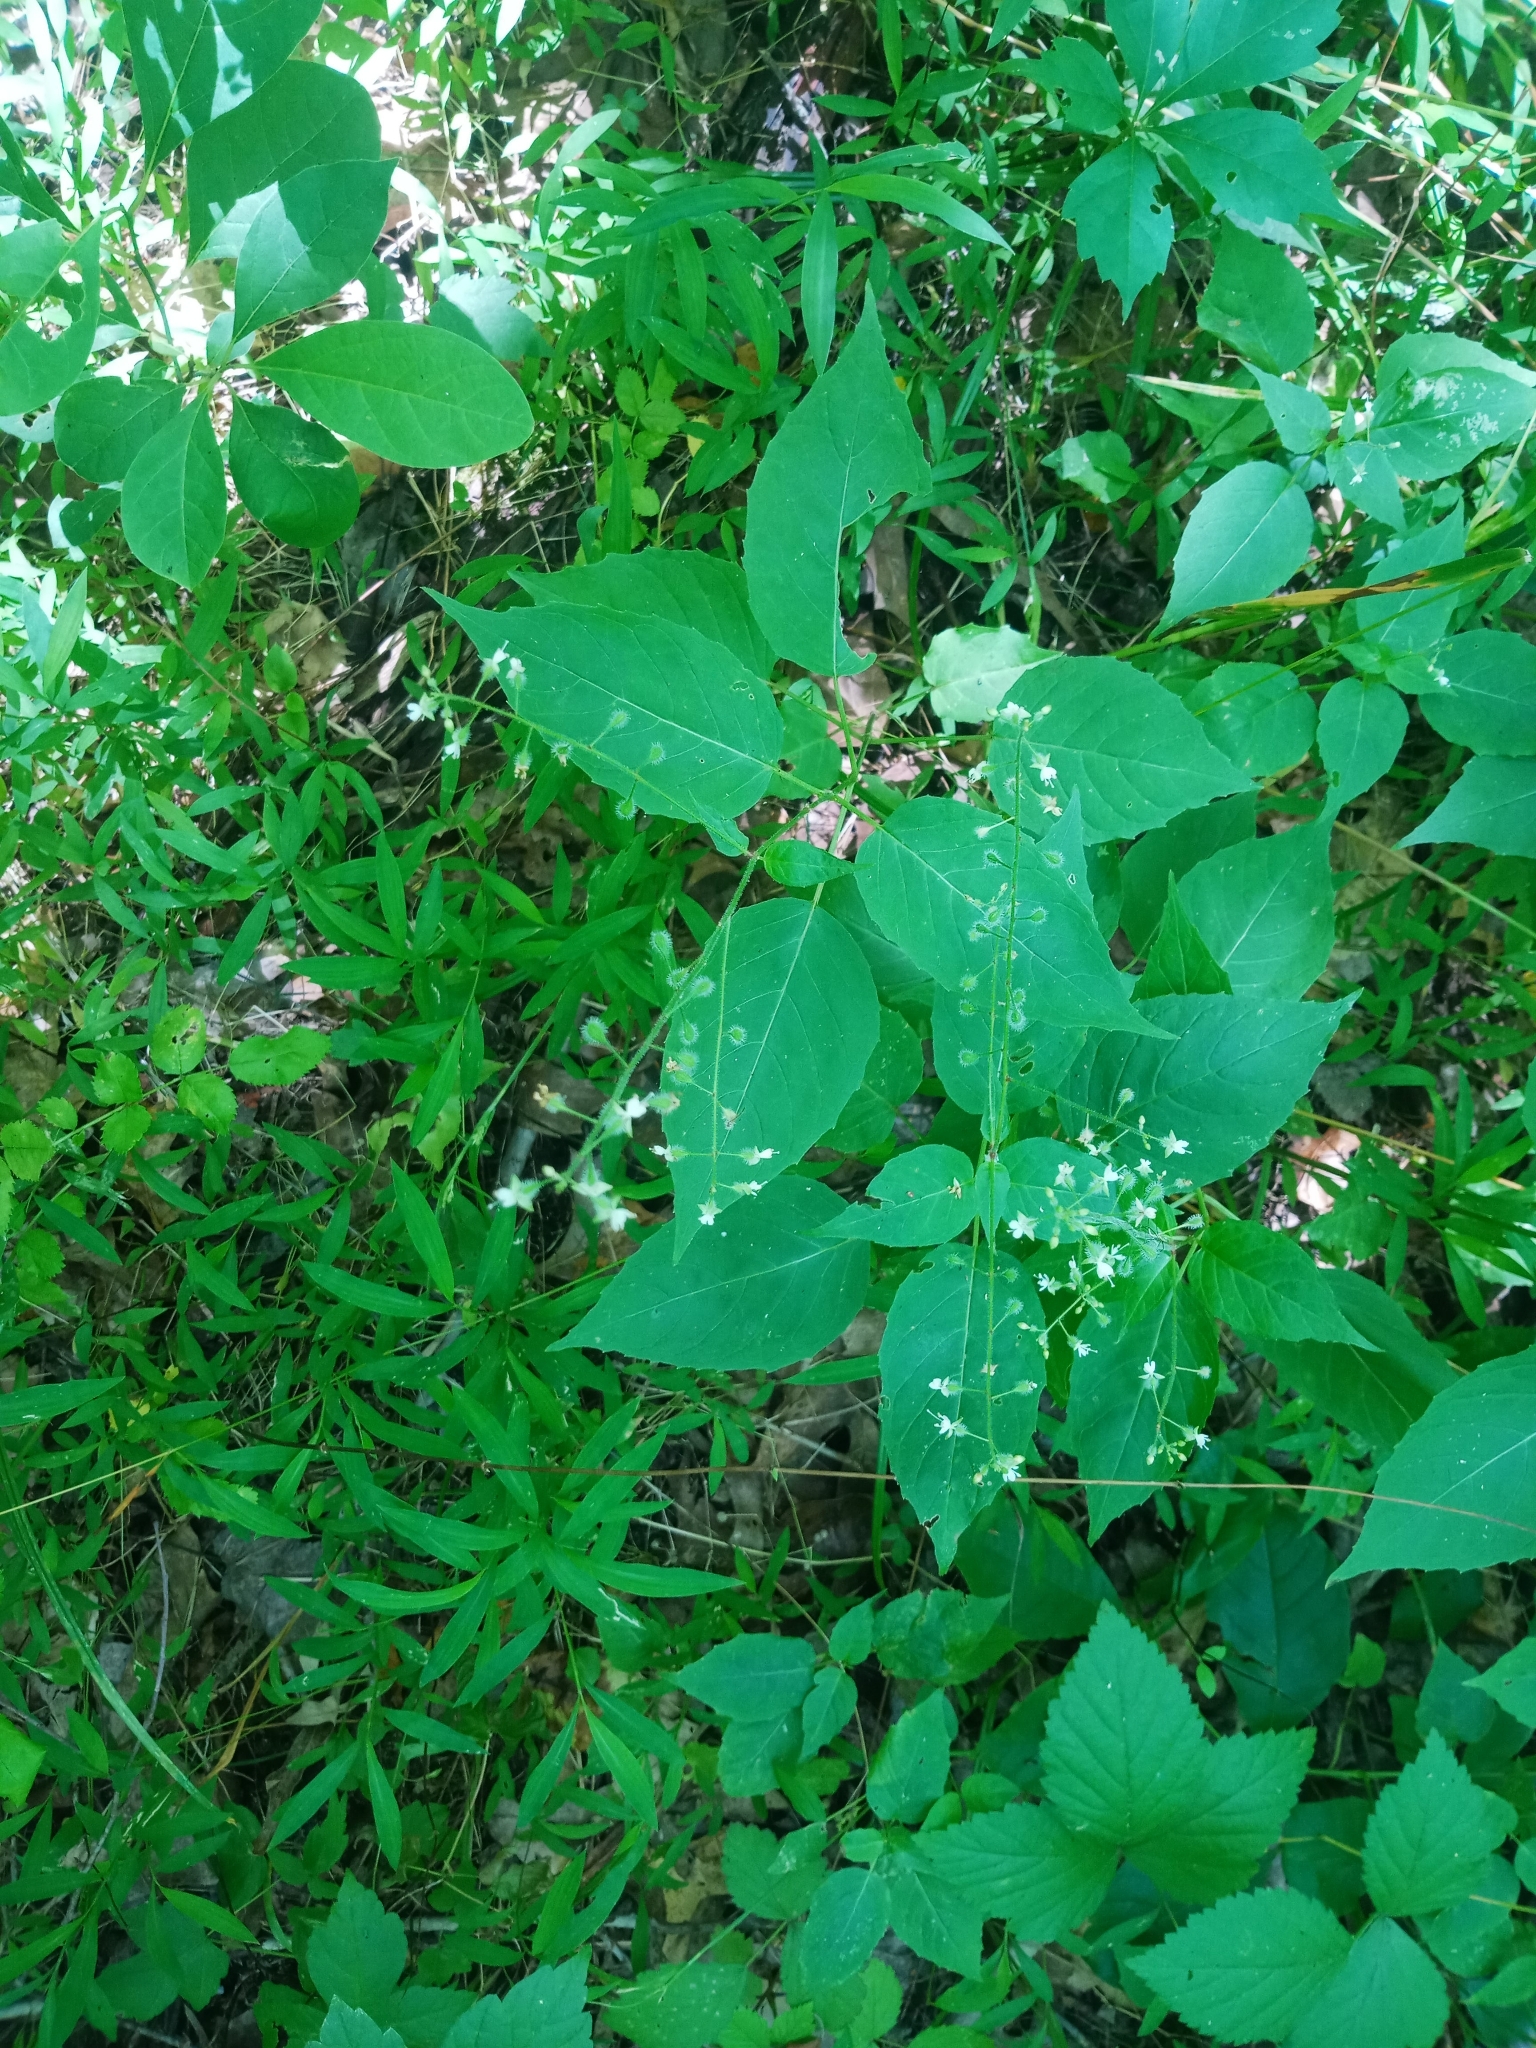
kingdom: Plantae
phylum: Tracheophyta
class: Magnoliopsida
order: Myrtales
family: Onagraceae
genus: Circaea
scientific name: Circaea canadensis
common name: Broad-leaved enchanter's nightshade
